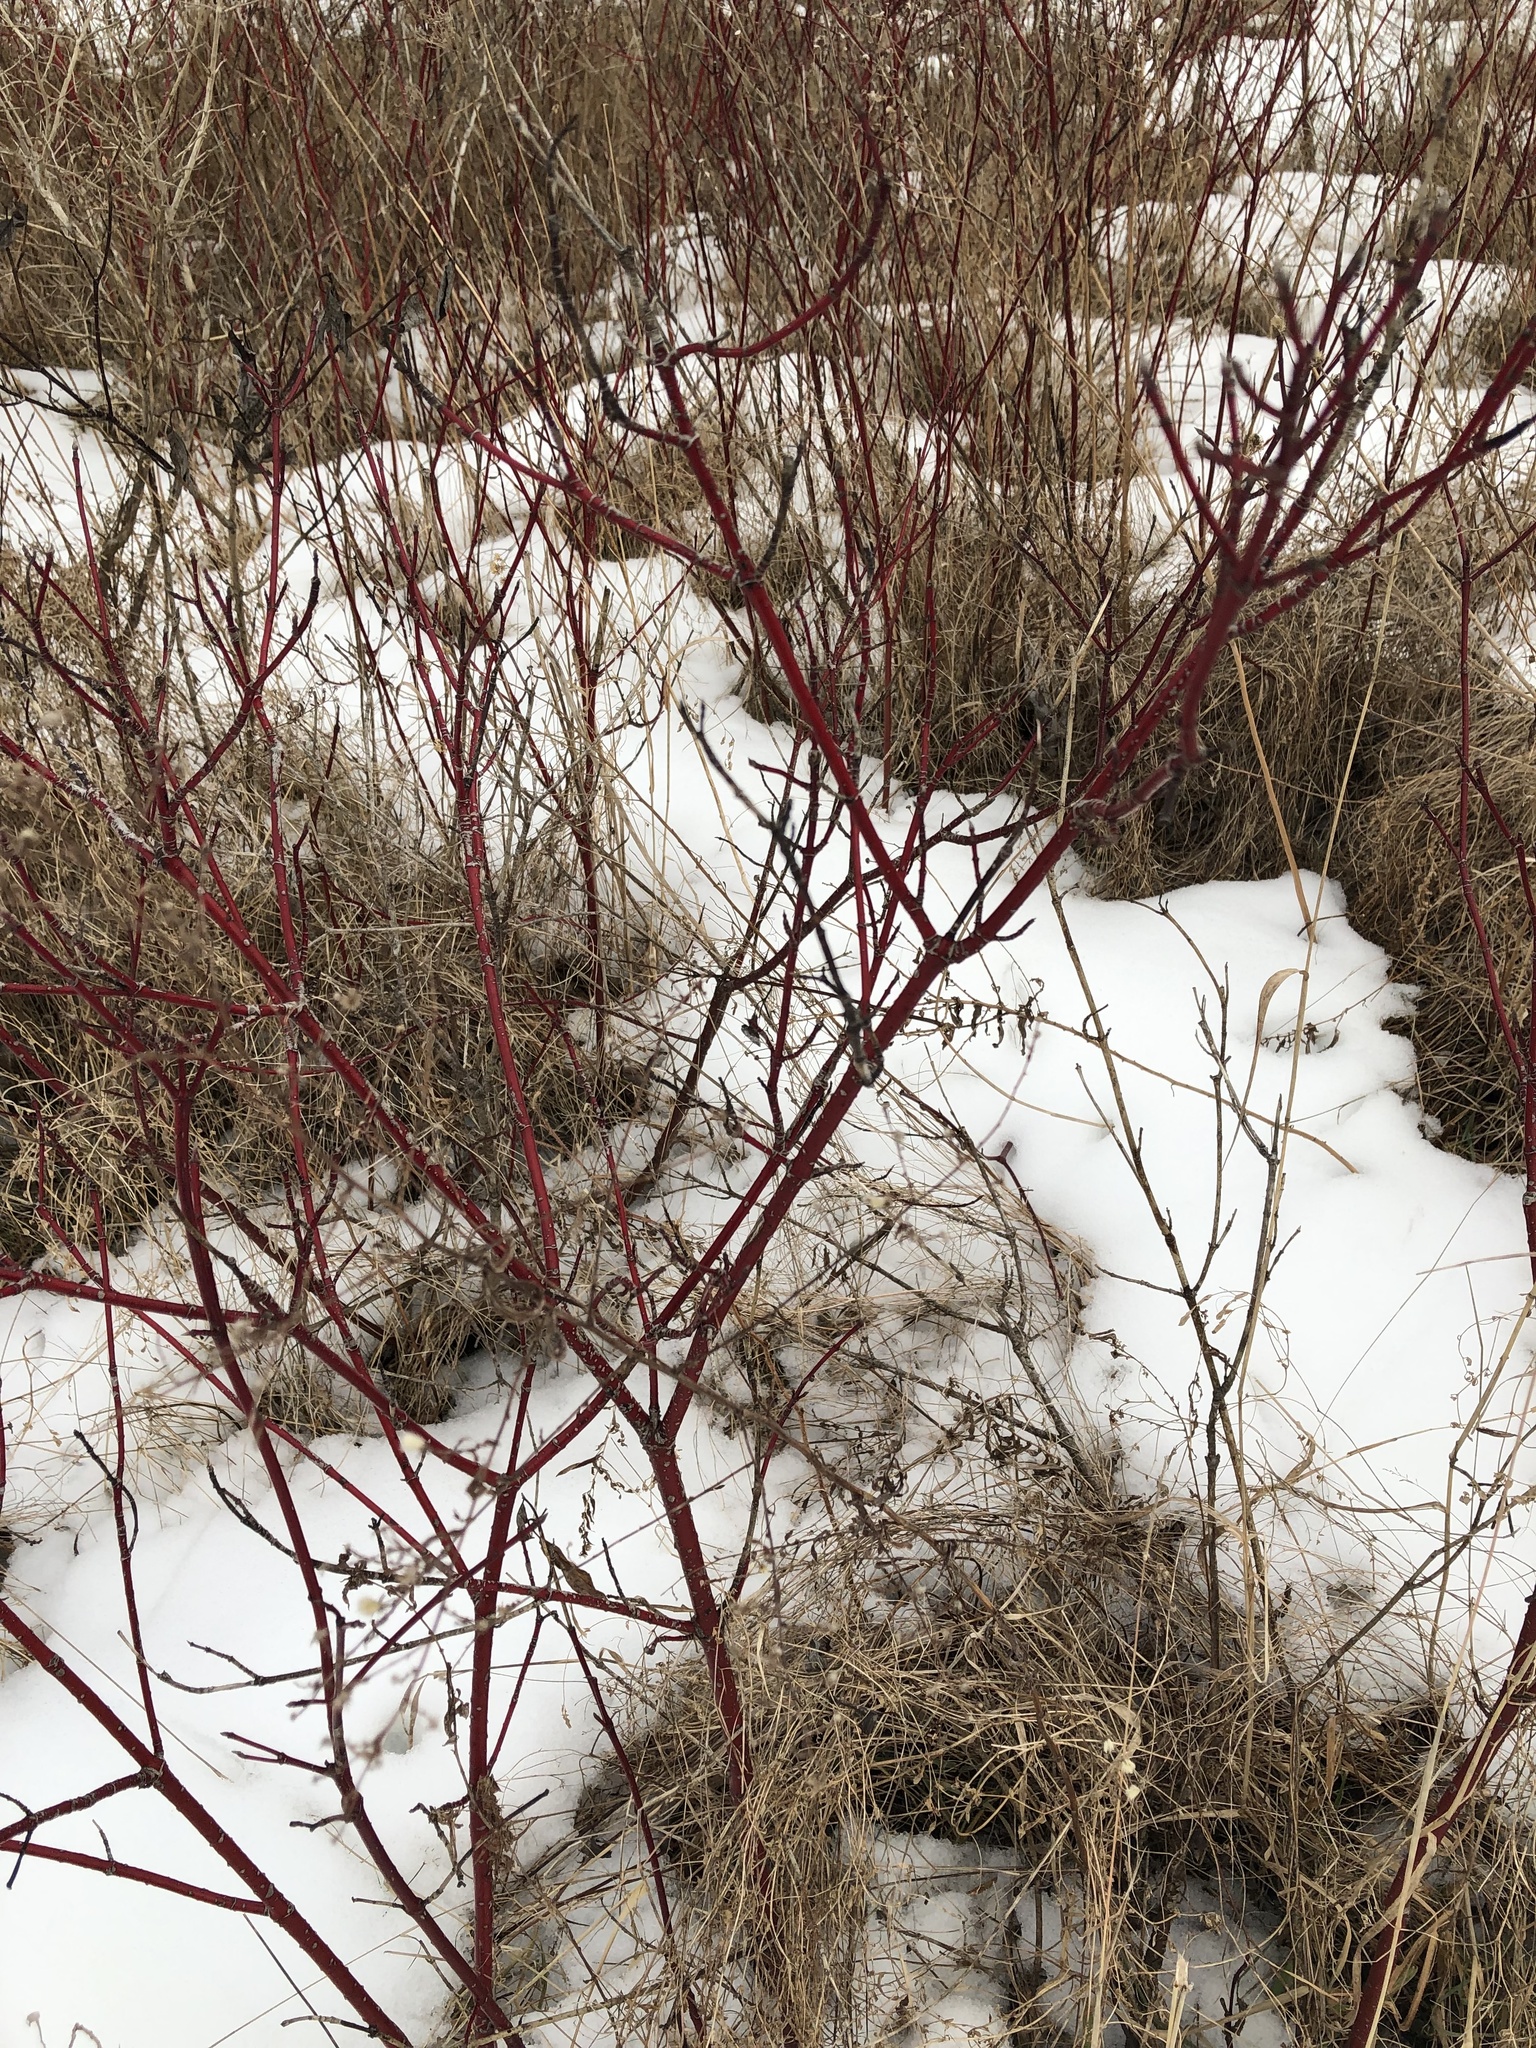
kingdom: Plantae
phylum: Tracheophyta
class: Magnoliopsida
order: Cornales
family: Cornaceae
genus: Cornus
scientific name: Cornus sericea
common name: Red-osier dogwood
